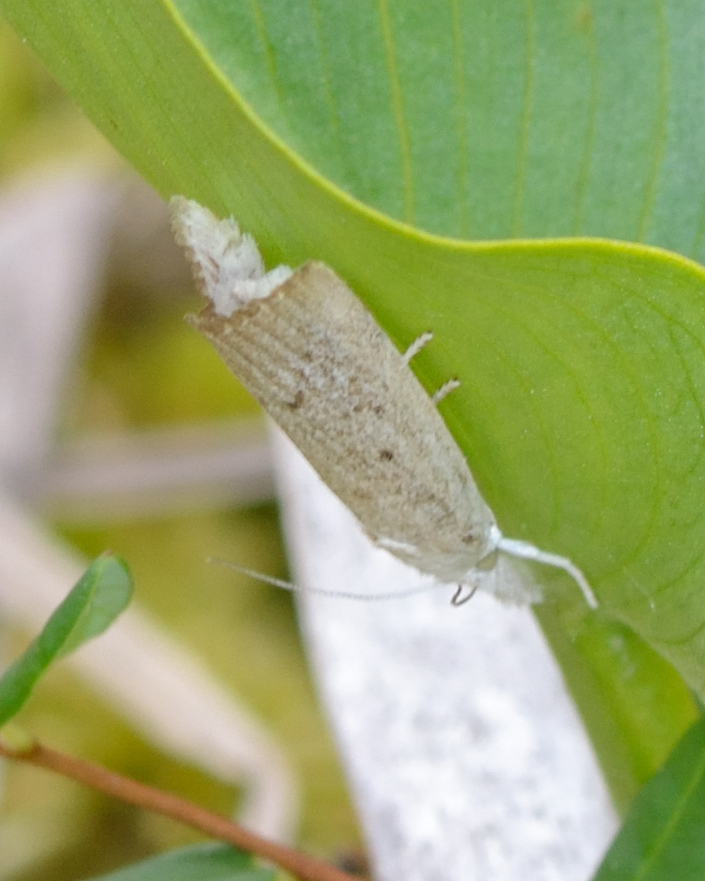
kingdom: Animalia
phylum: Arthropoda
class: Insecta
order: Lepidoptera
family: Crambidae
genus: Calamotropha
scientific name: Calamotropha paludella
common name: Bulrush veneer
